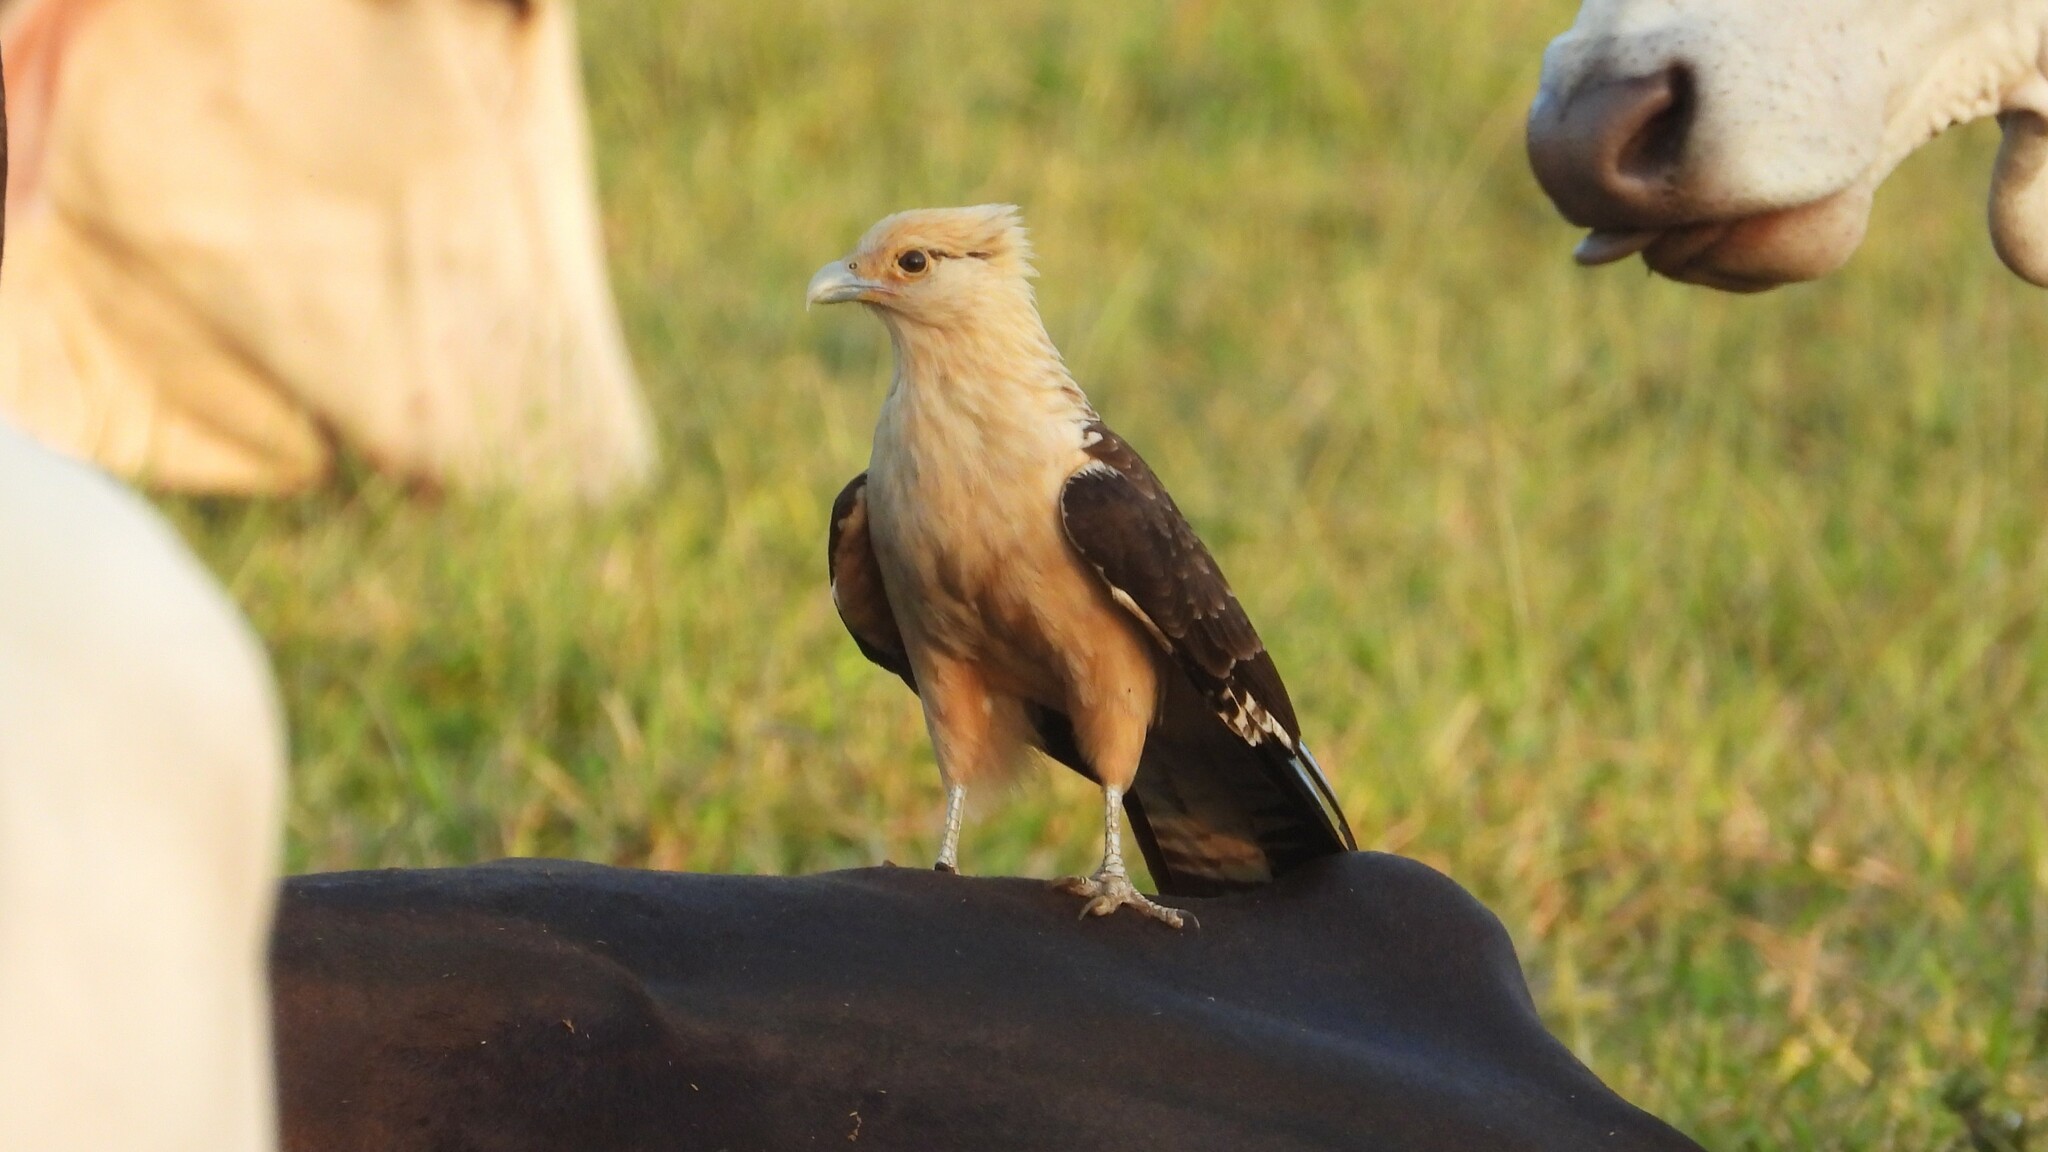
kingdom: Animalia
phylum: Chordata
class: Aves
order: Falconiformes
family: Falconidae
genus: Daptrius
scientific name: Daptrius
